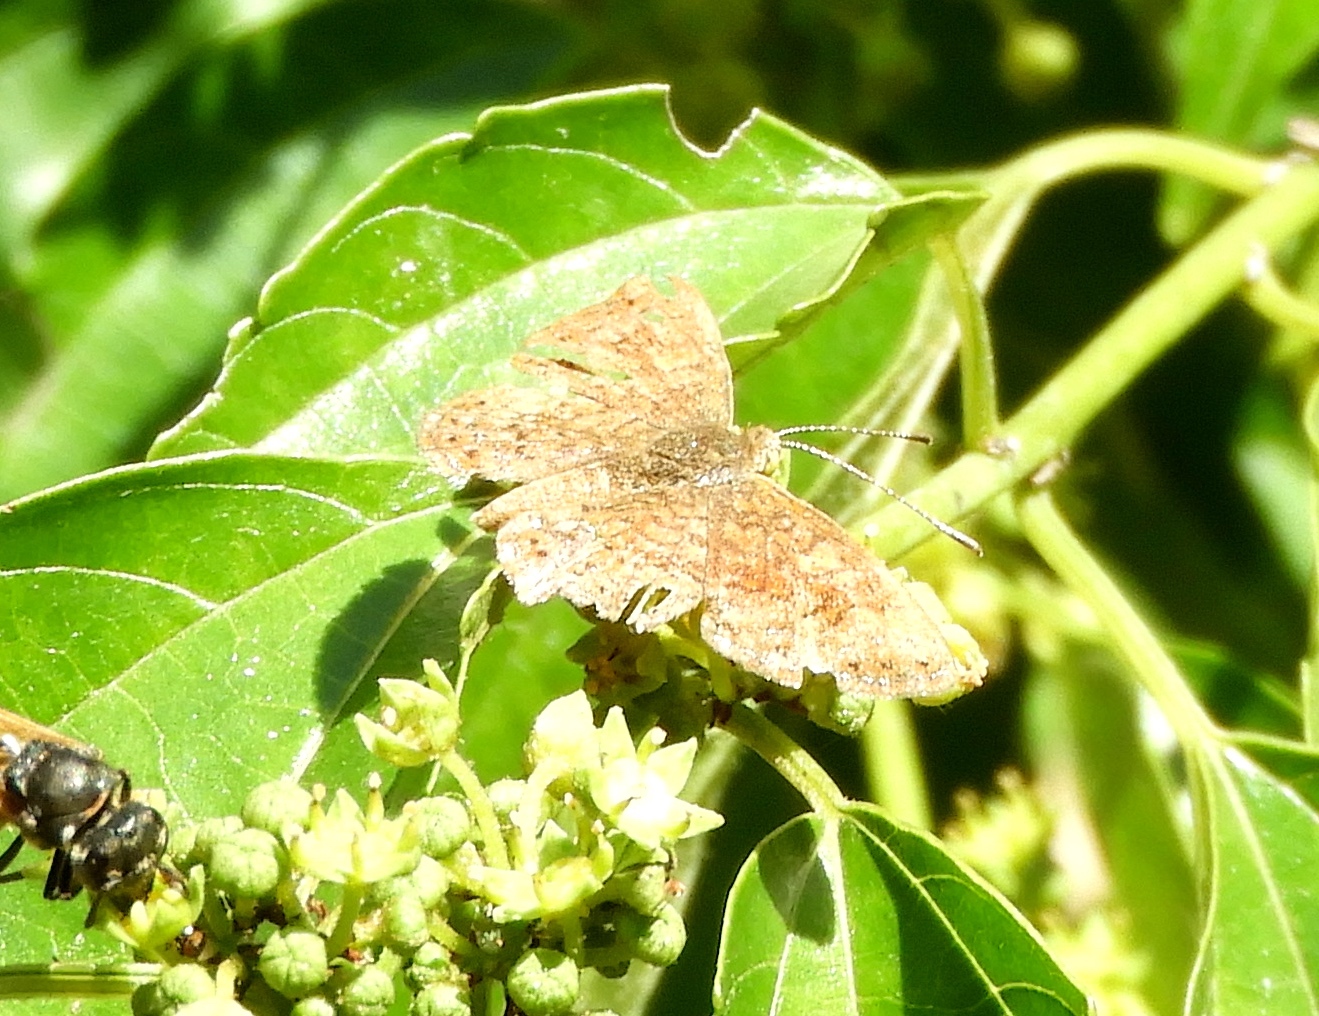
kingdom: Animalia
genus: Calephelis
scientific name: Calephelis
